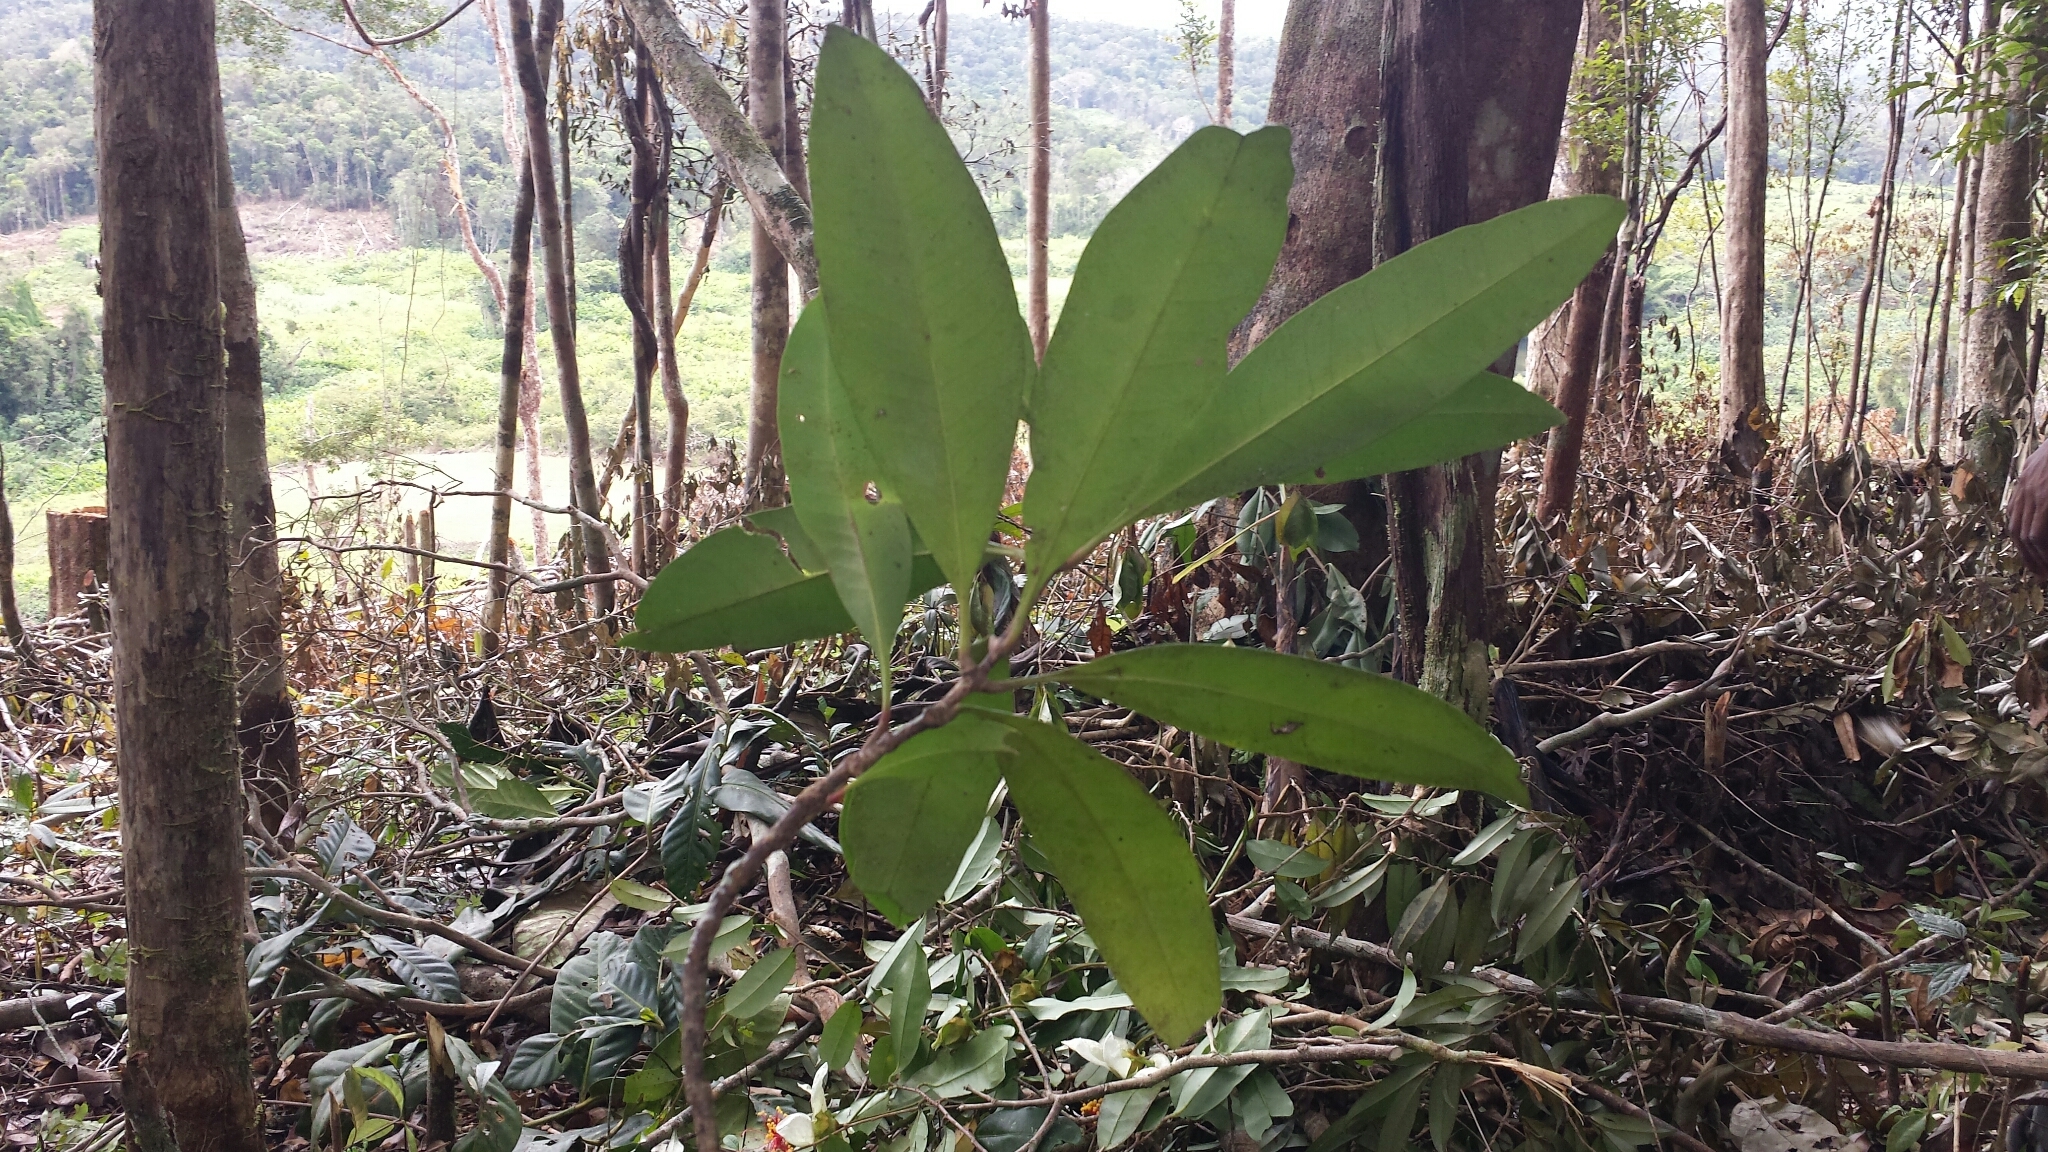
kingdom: Plantae
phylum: Tracheophyta
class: Magnoliopsida
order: Gentianales
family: Rubiaceae
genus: Ixora
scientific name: Ixora masoalensis
